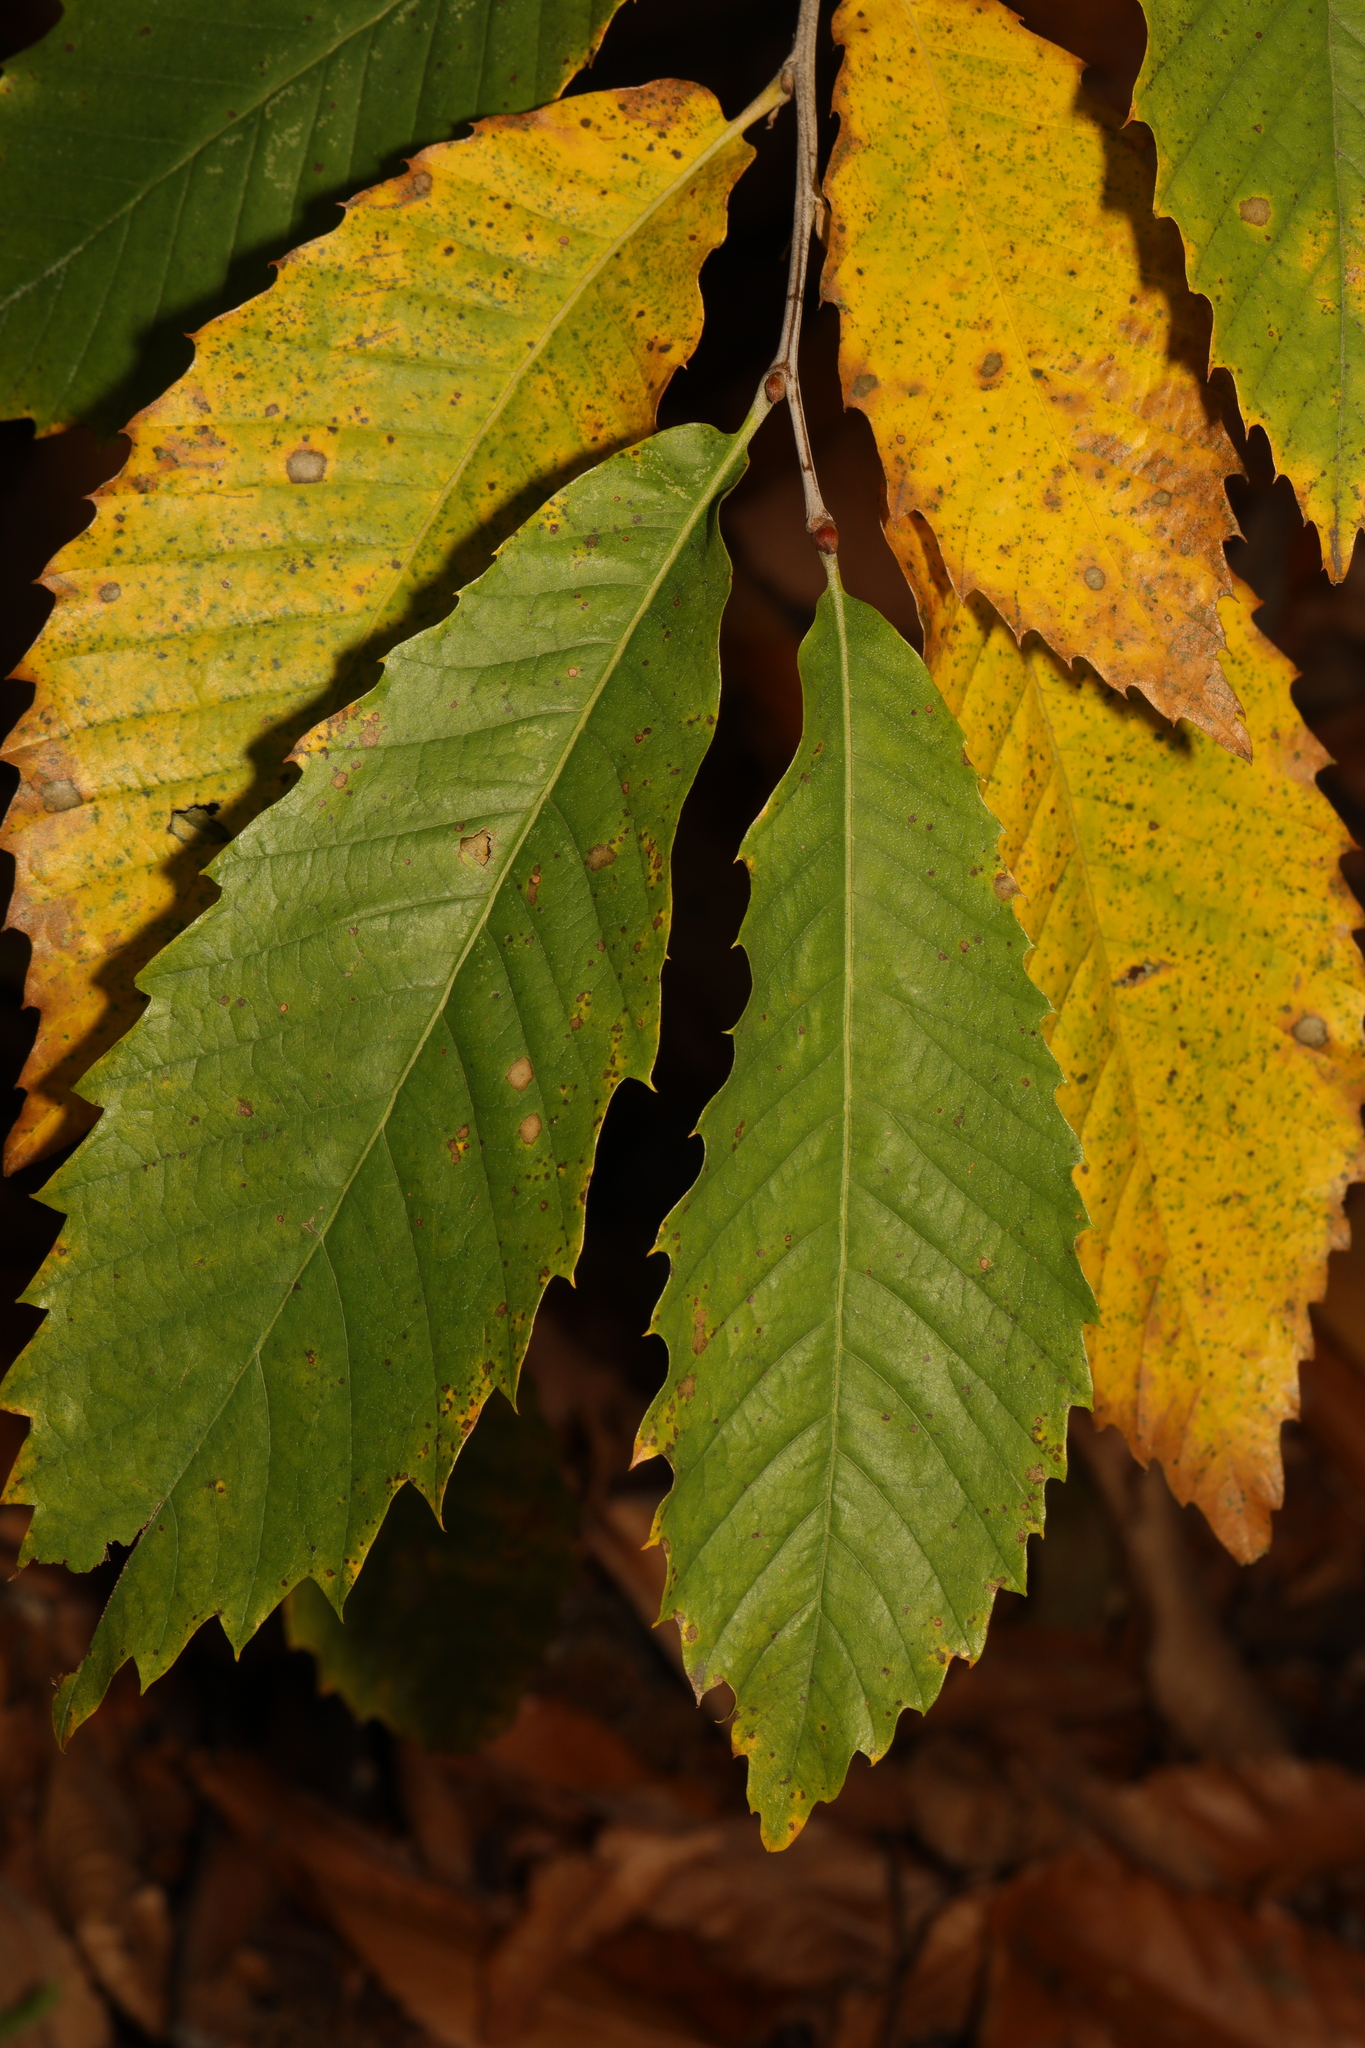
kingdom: Plantae
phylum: Tracheophyta
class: Magnoliopsida
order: Fagales
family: Fagaceae
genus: Castanea
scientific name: Castanea sativa
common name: Sweet chestnut
